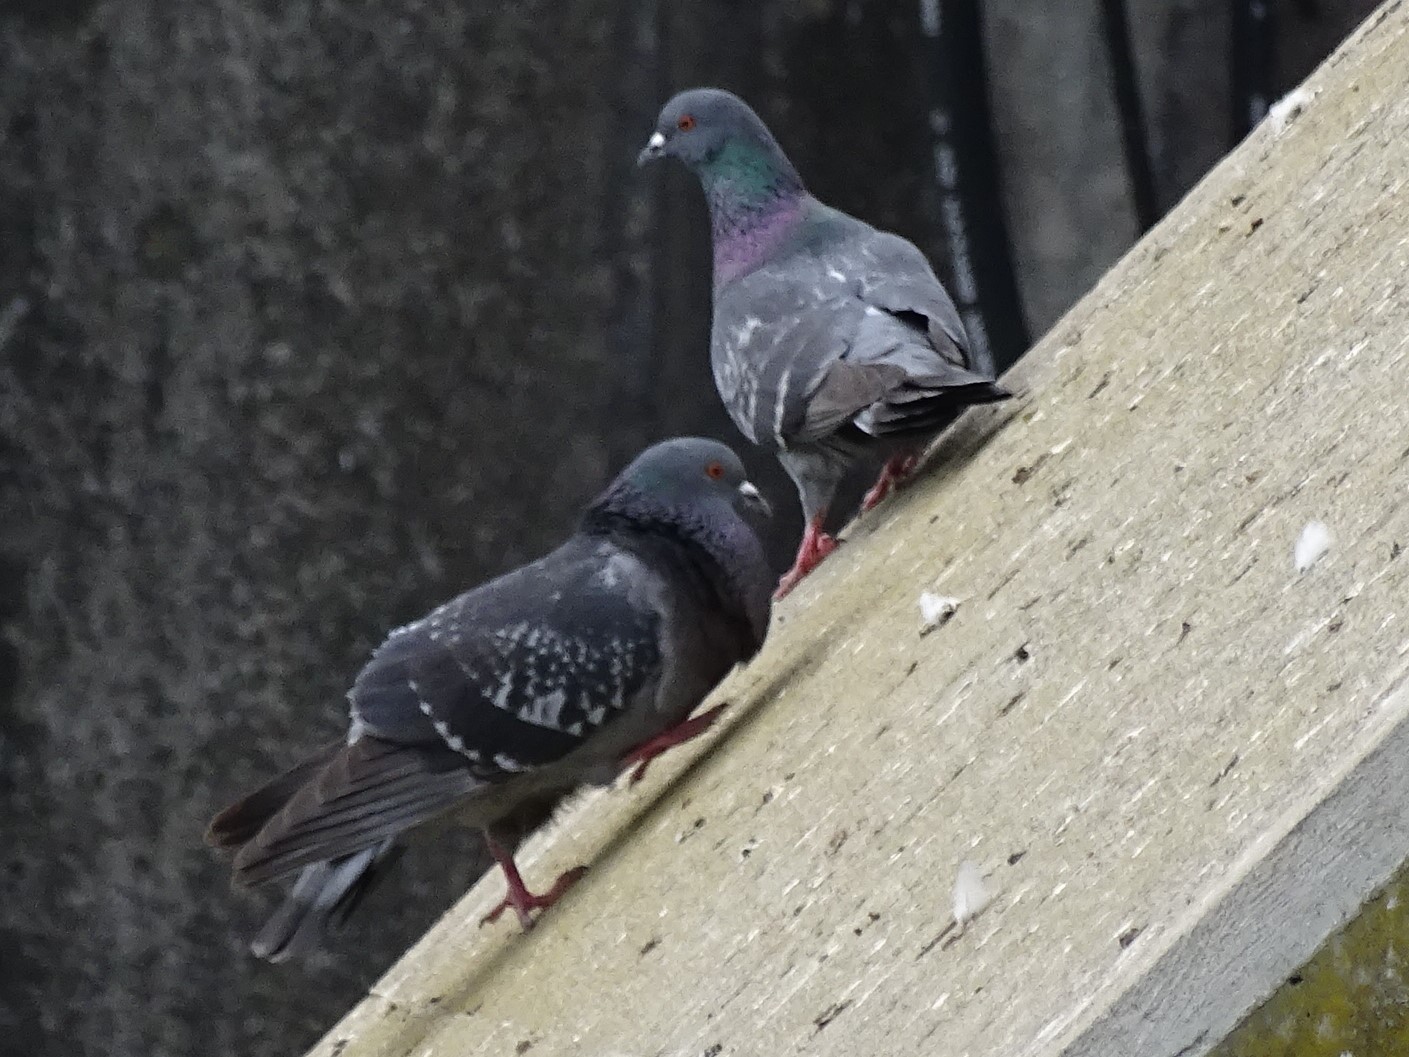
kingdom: Animalia
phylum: Chordata
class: Aves
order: Columbiformes
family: Columbidae
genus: Columba
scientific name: Columba livia
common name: Rock pigeon
